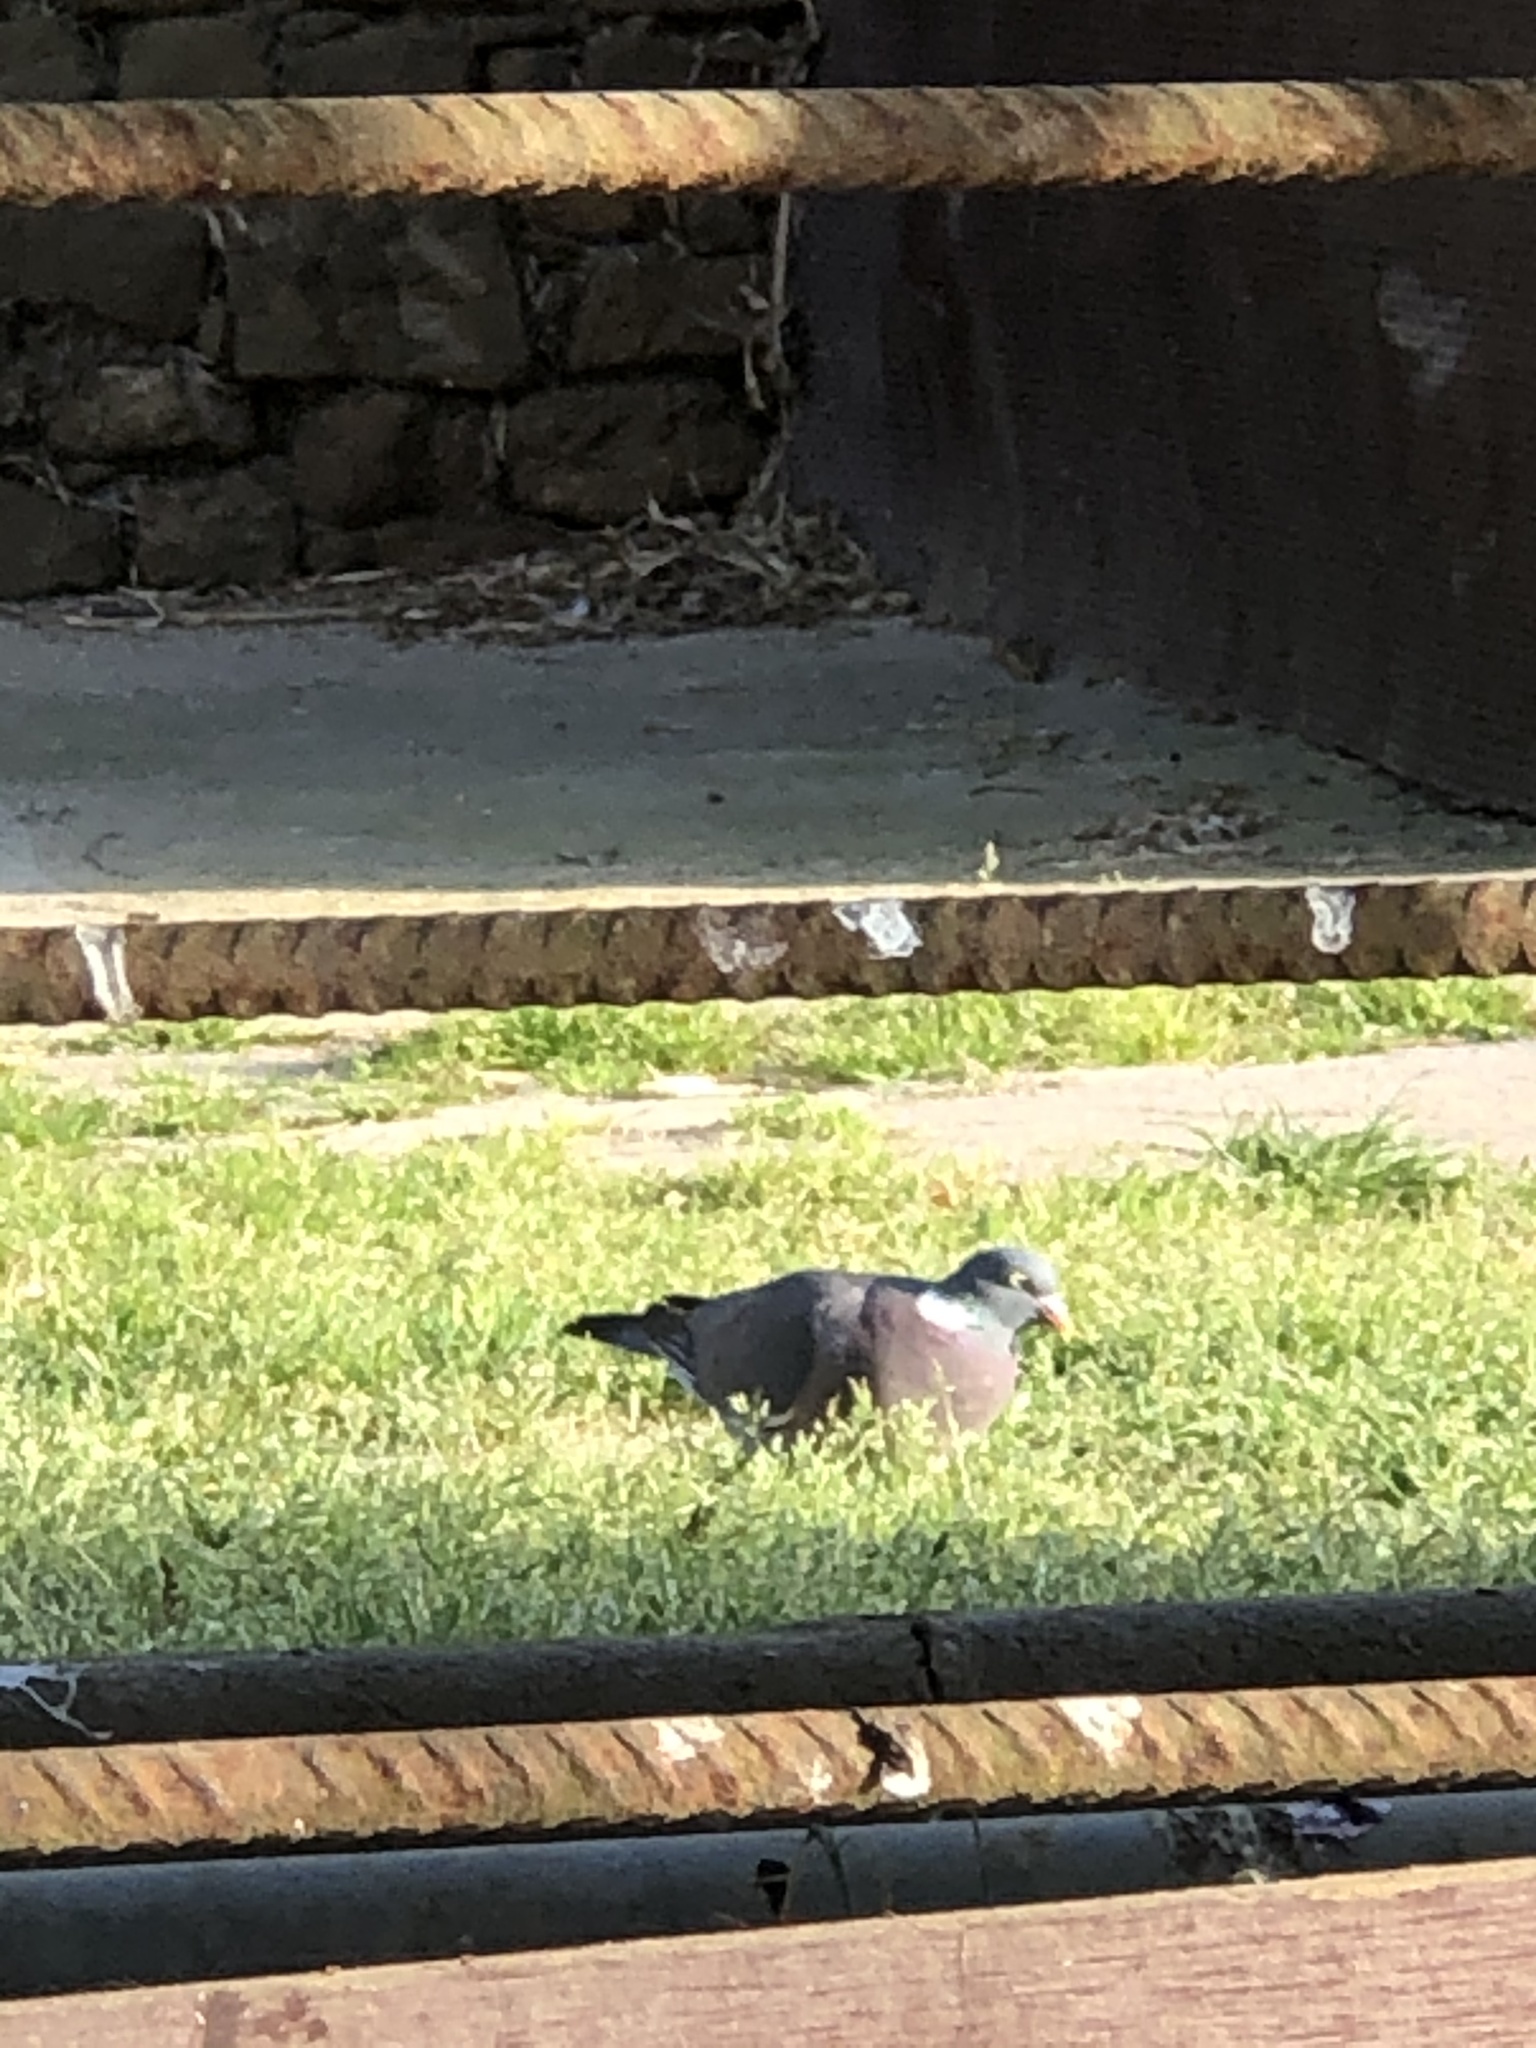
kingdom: Animalia
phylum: Chordata
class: Aves
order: Columbiformes
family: Columbidae
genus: Columba
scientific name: Columba palumbus
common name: Common wood pigeon
